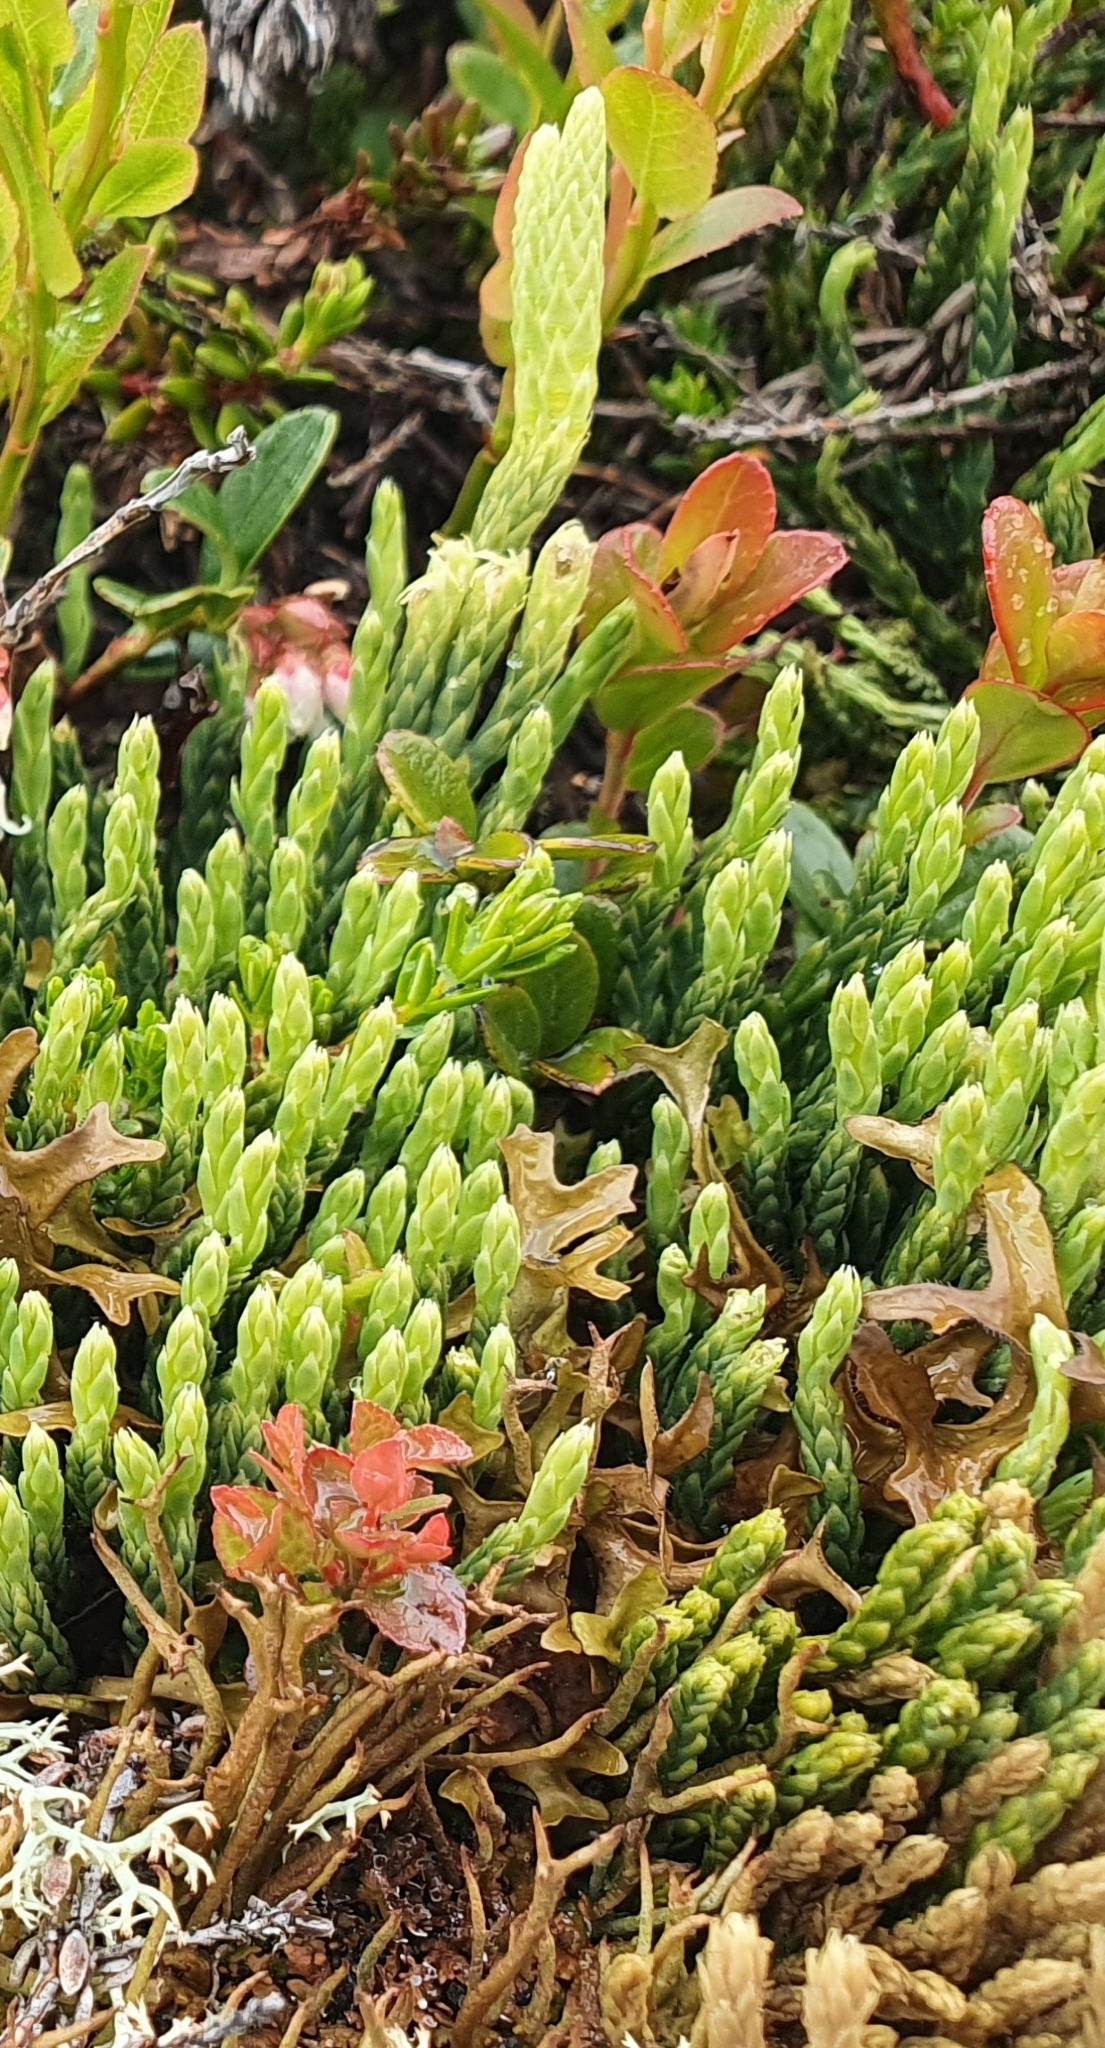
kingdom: Plantae
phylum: Tracheophyta
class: Lycopodiopsida
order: Lycopodiales
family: Lycopodiaceae
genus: Diphasiastrum
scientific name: Diphasiastrum alpinum
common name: Alpine clubmoss
